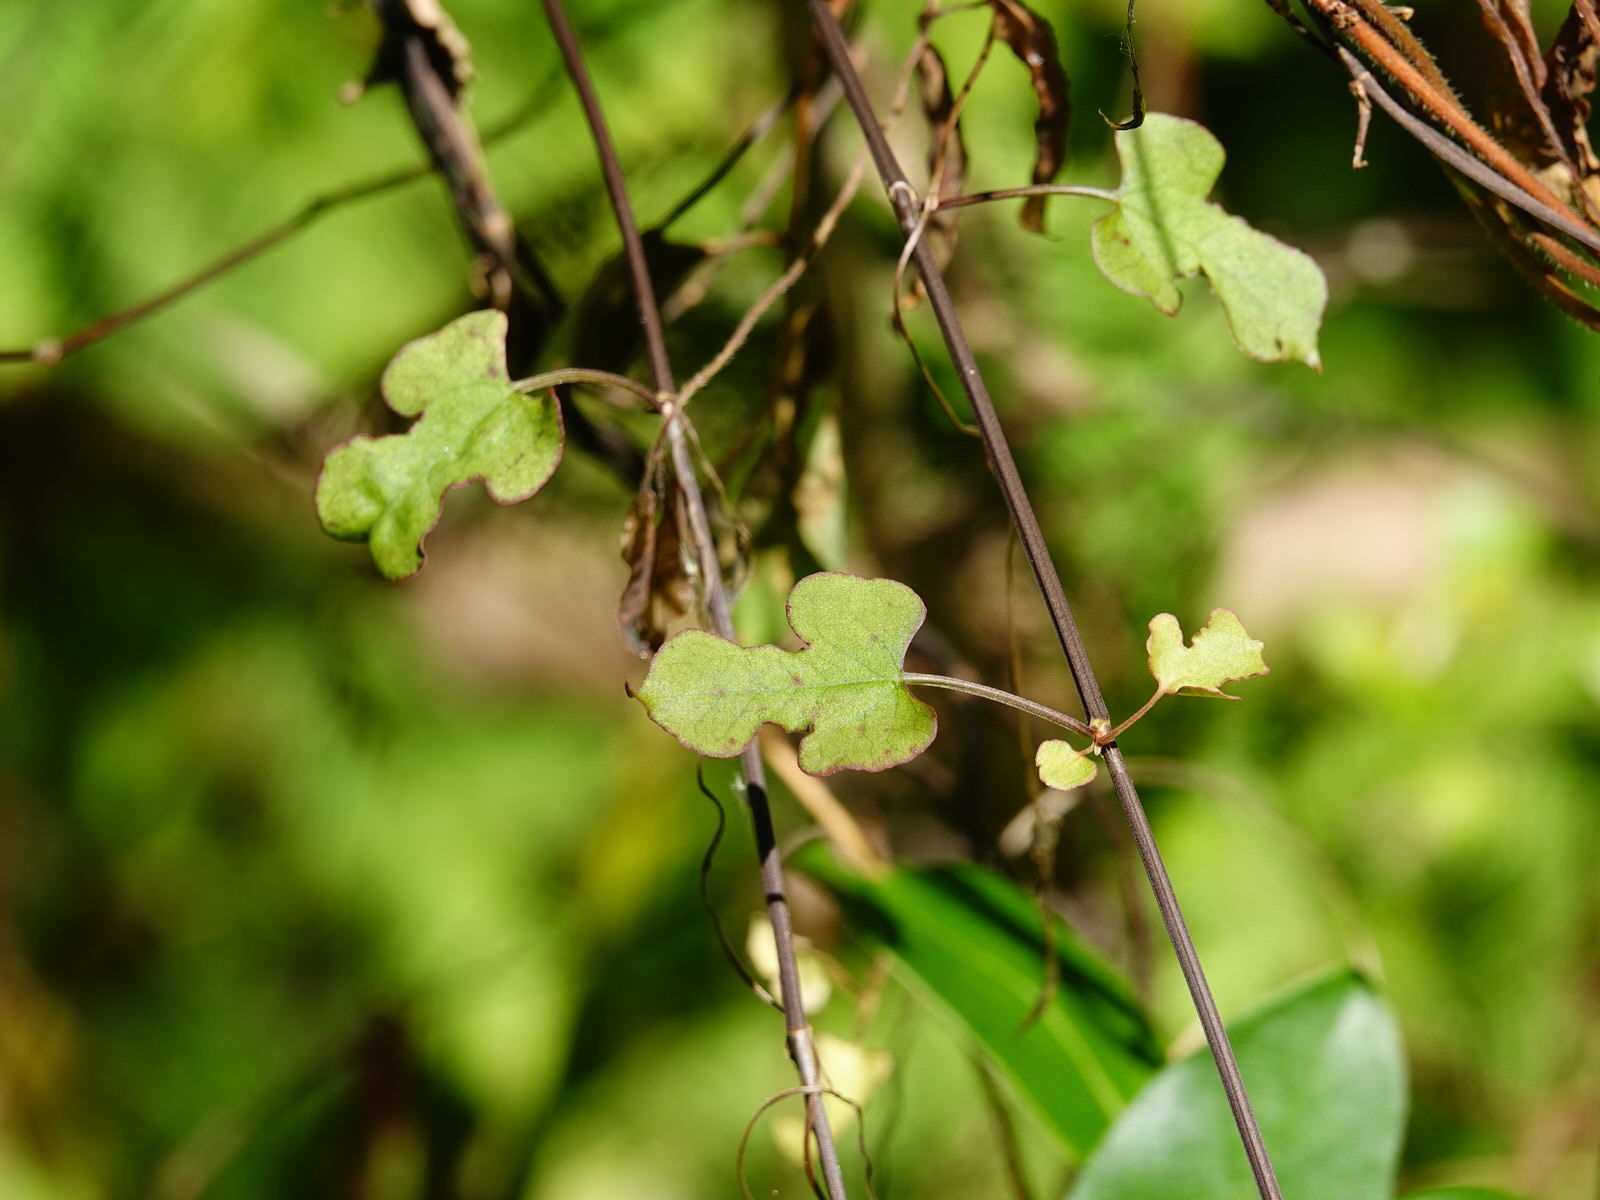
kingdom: Plantae
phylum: Tracheophyta
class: Magnoliopsida
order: Caryophyllales
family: Polygonaceae
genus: Muehlenbeckia
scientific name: Muehlenbeckia australis
